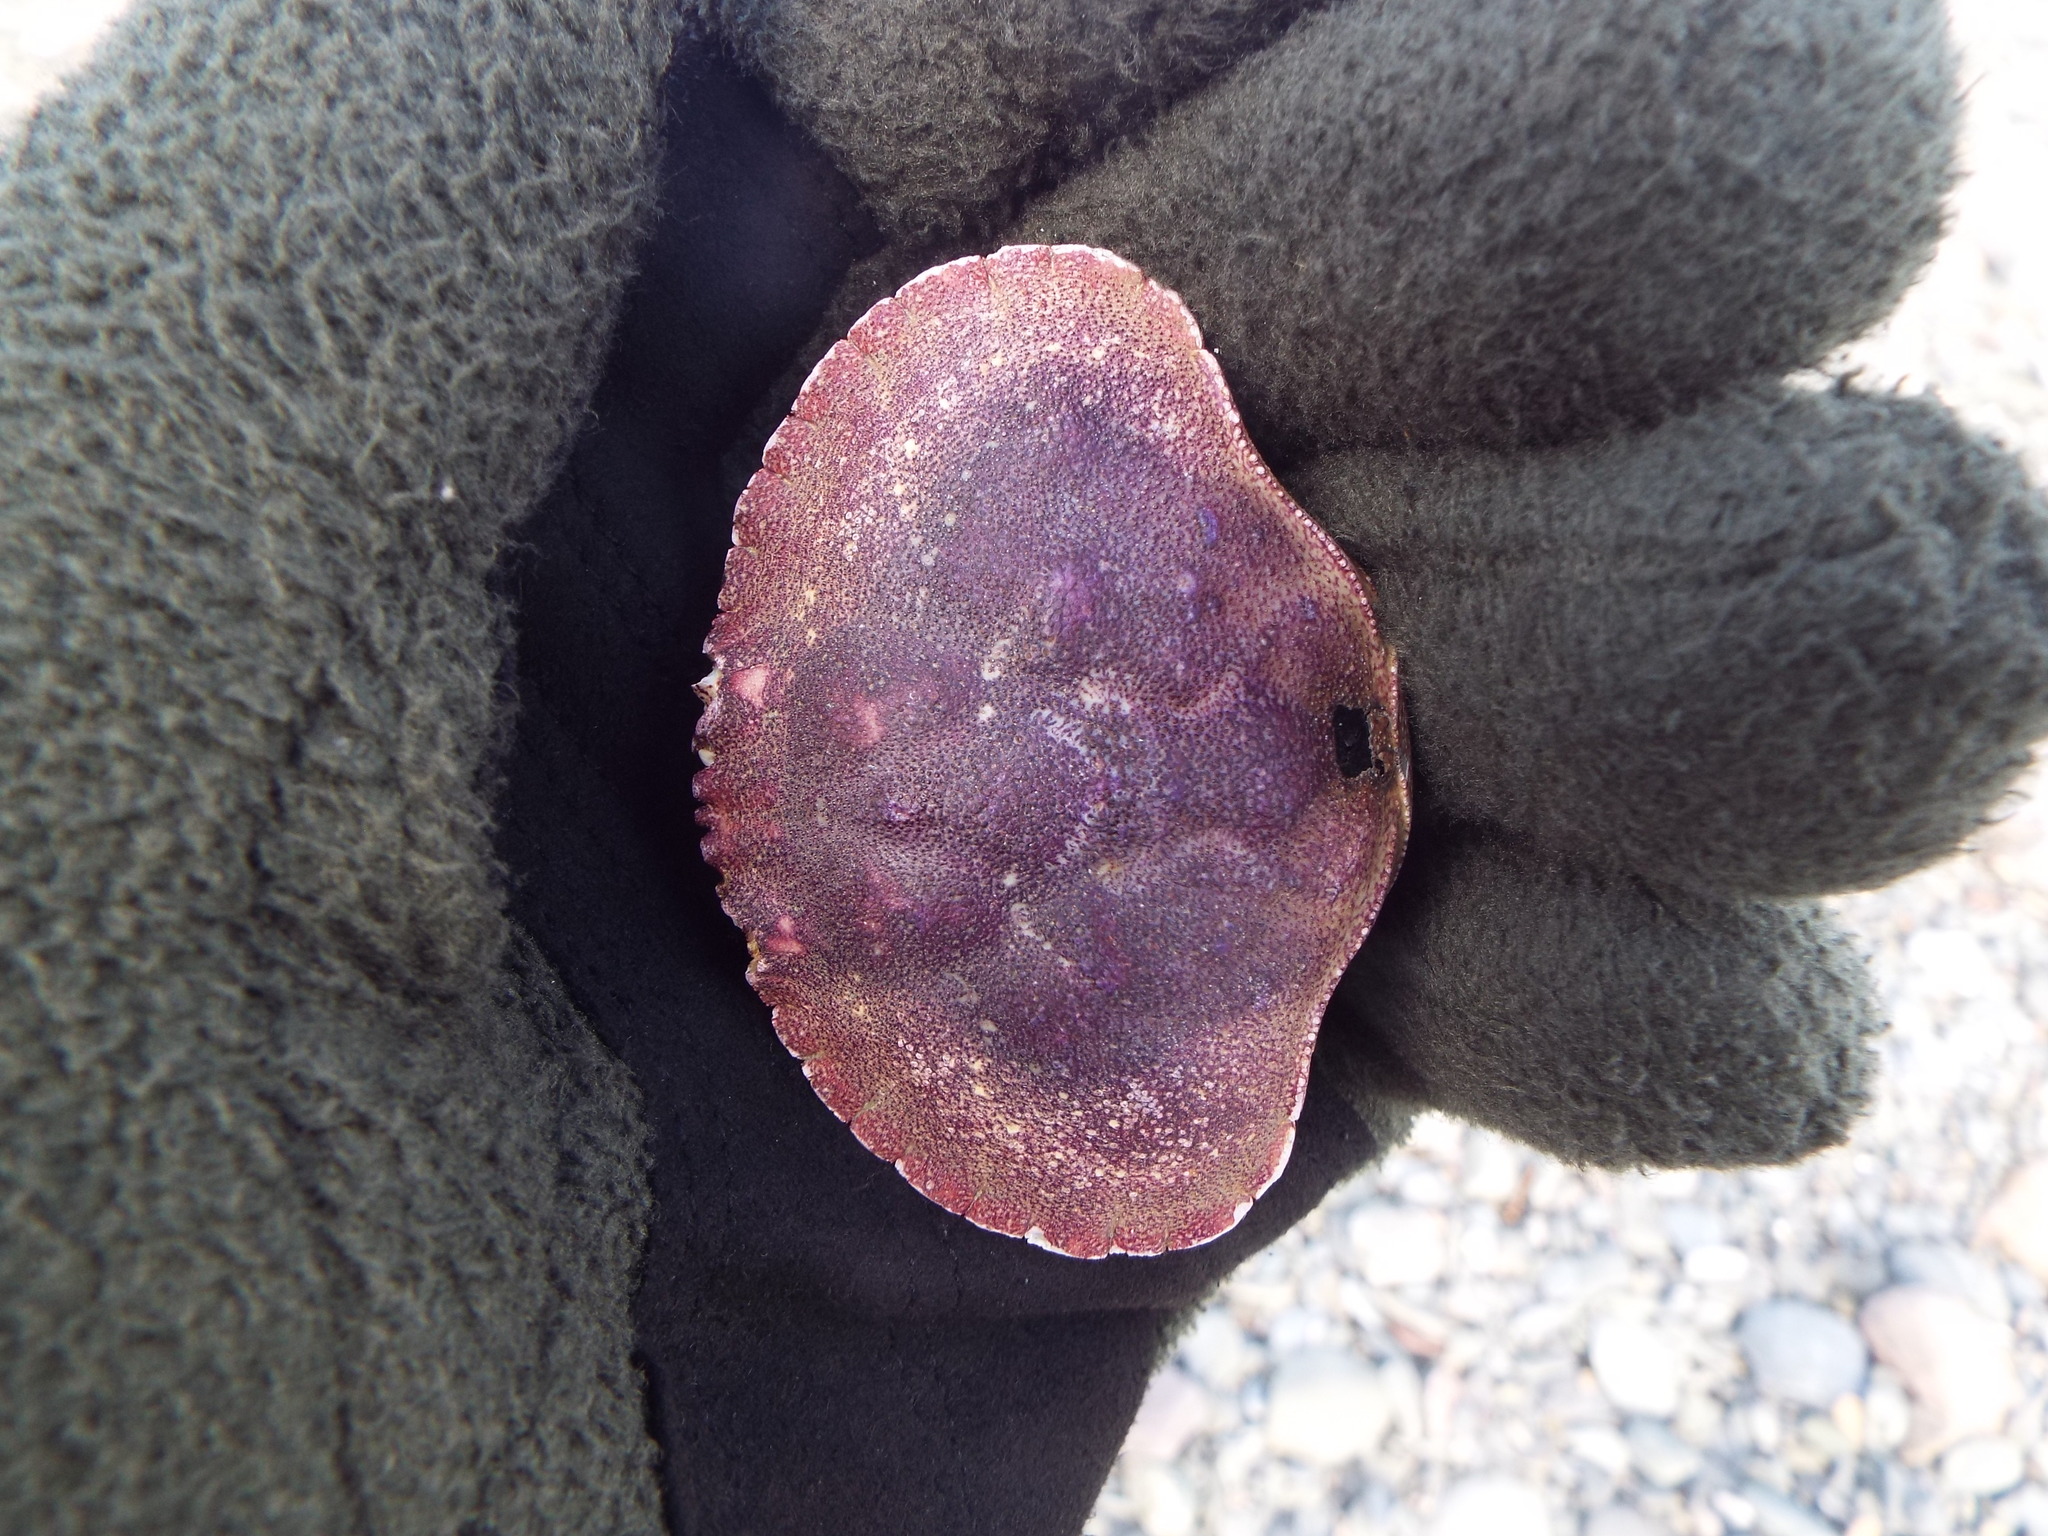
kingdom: Animalia
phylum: Arthropoda
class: Malacostraca
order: Decapoda
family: Cancridae
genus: Cancer
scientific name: Cancer borealis
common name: Jonah crab
